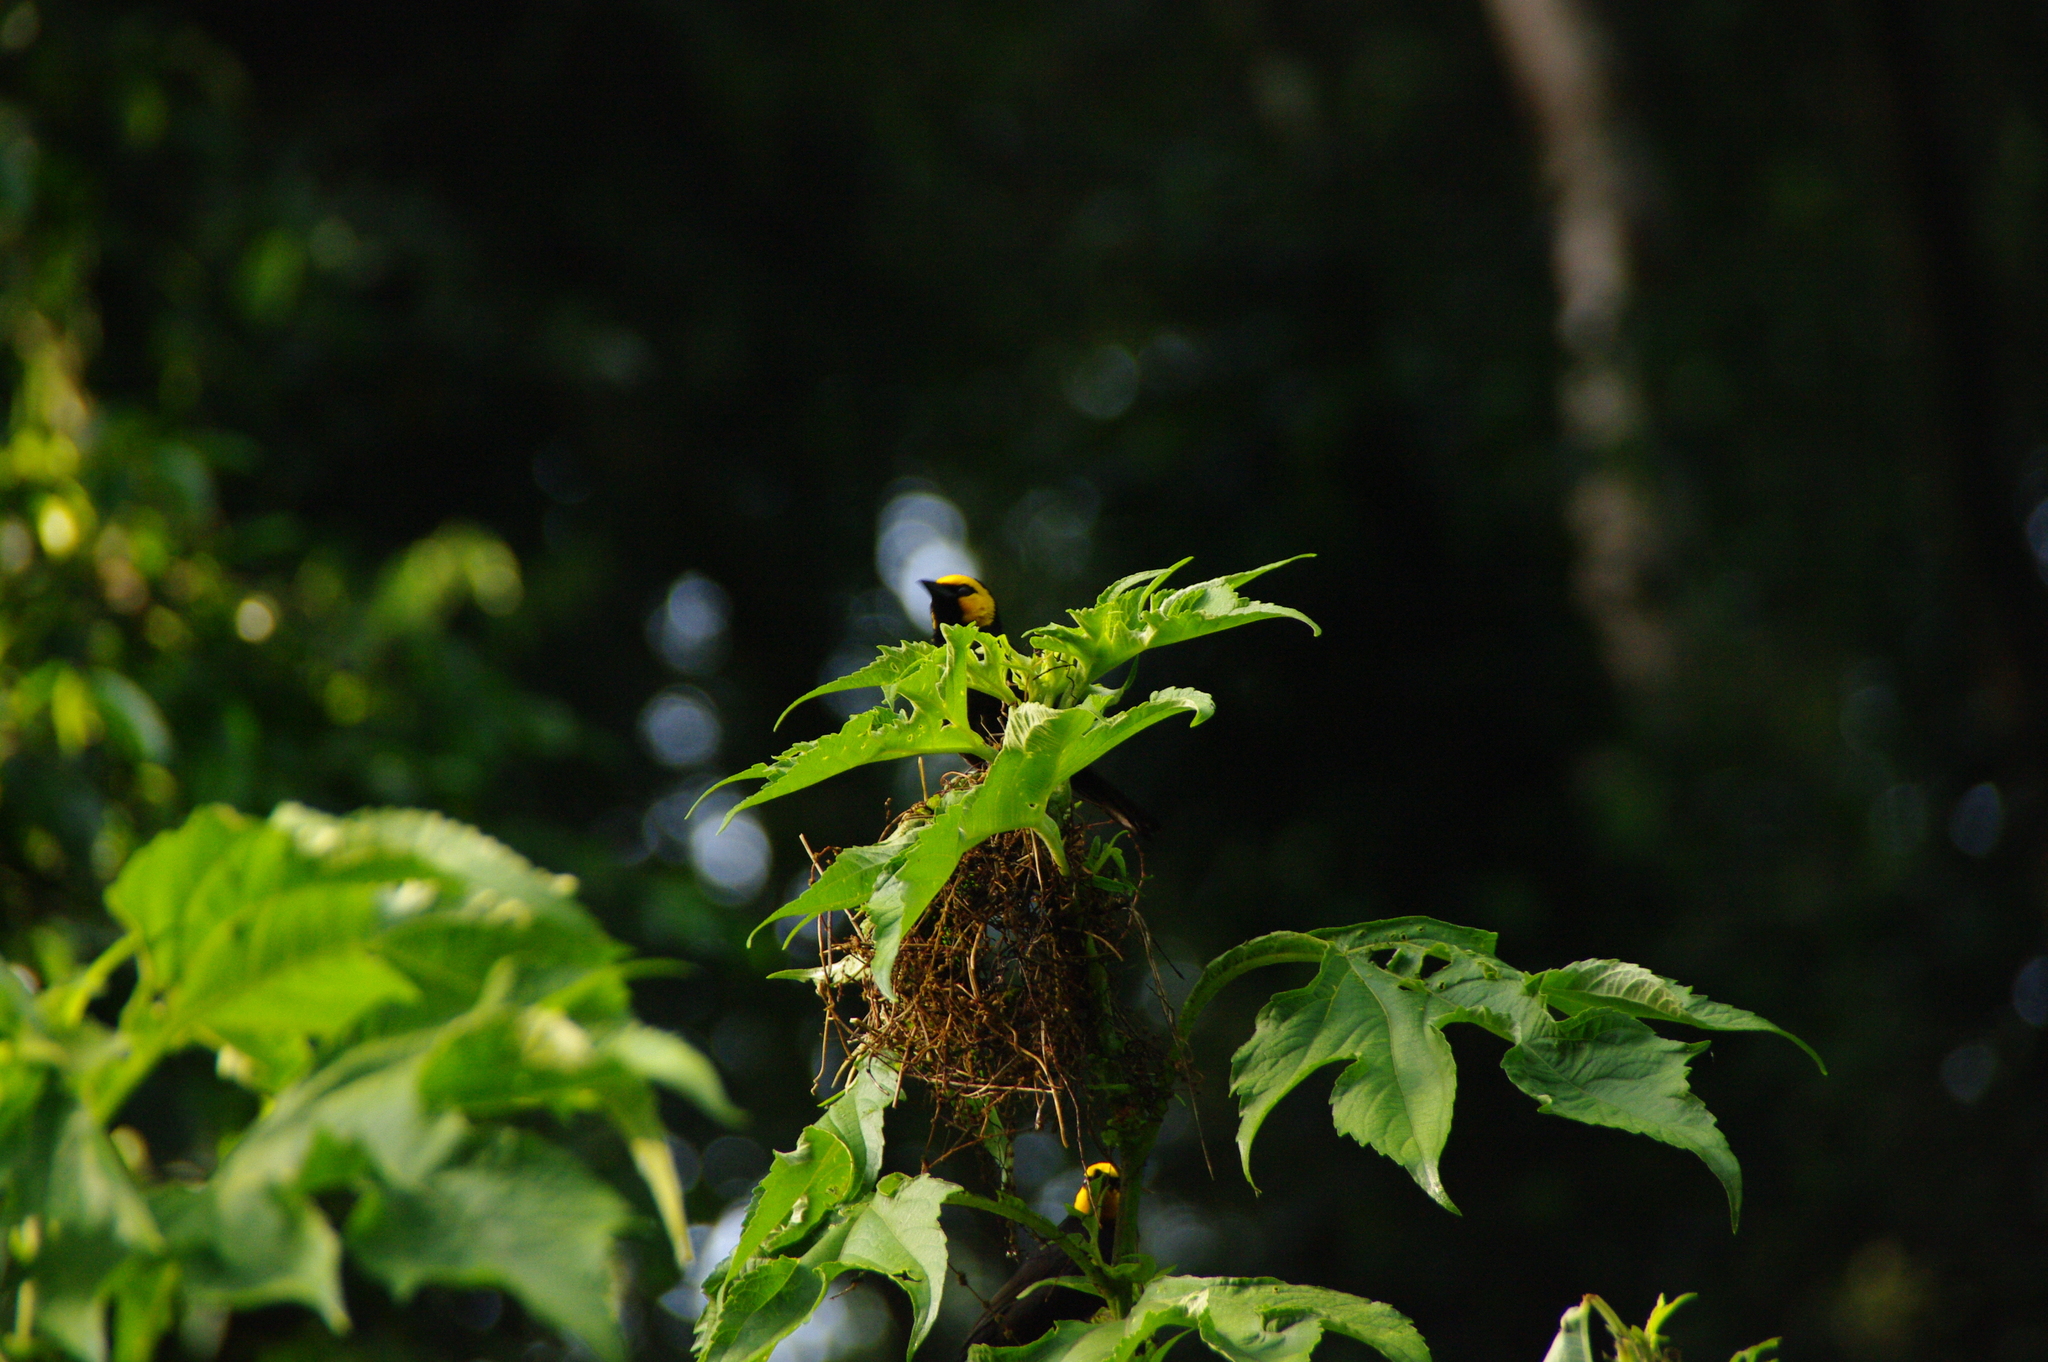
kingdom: Animalia
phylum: Chordata
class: Aves
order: Passeriformes
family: Ploceidae
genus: Ploceus
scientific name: Ploceus melanogaster
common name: Black-billed weaver
